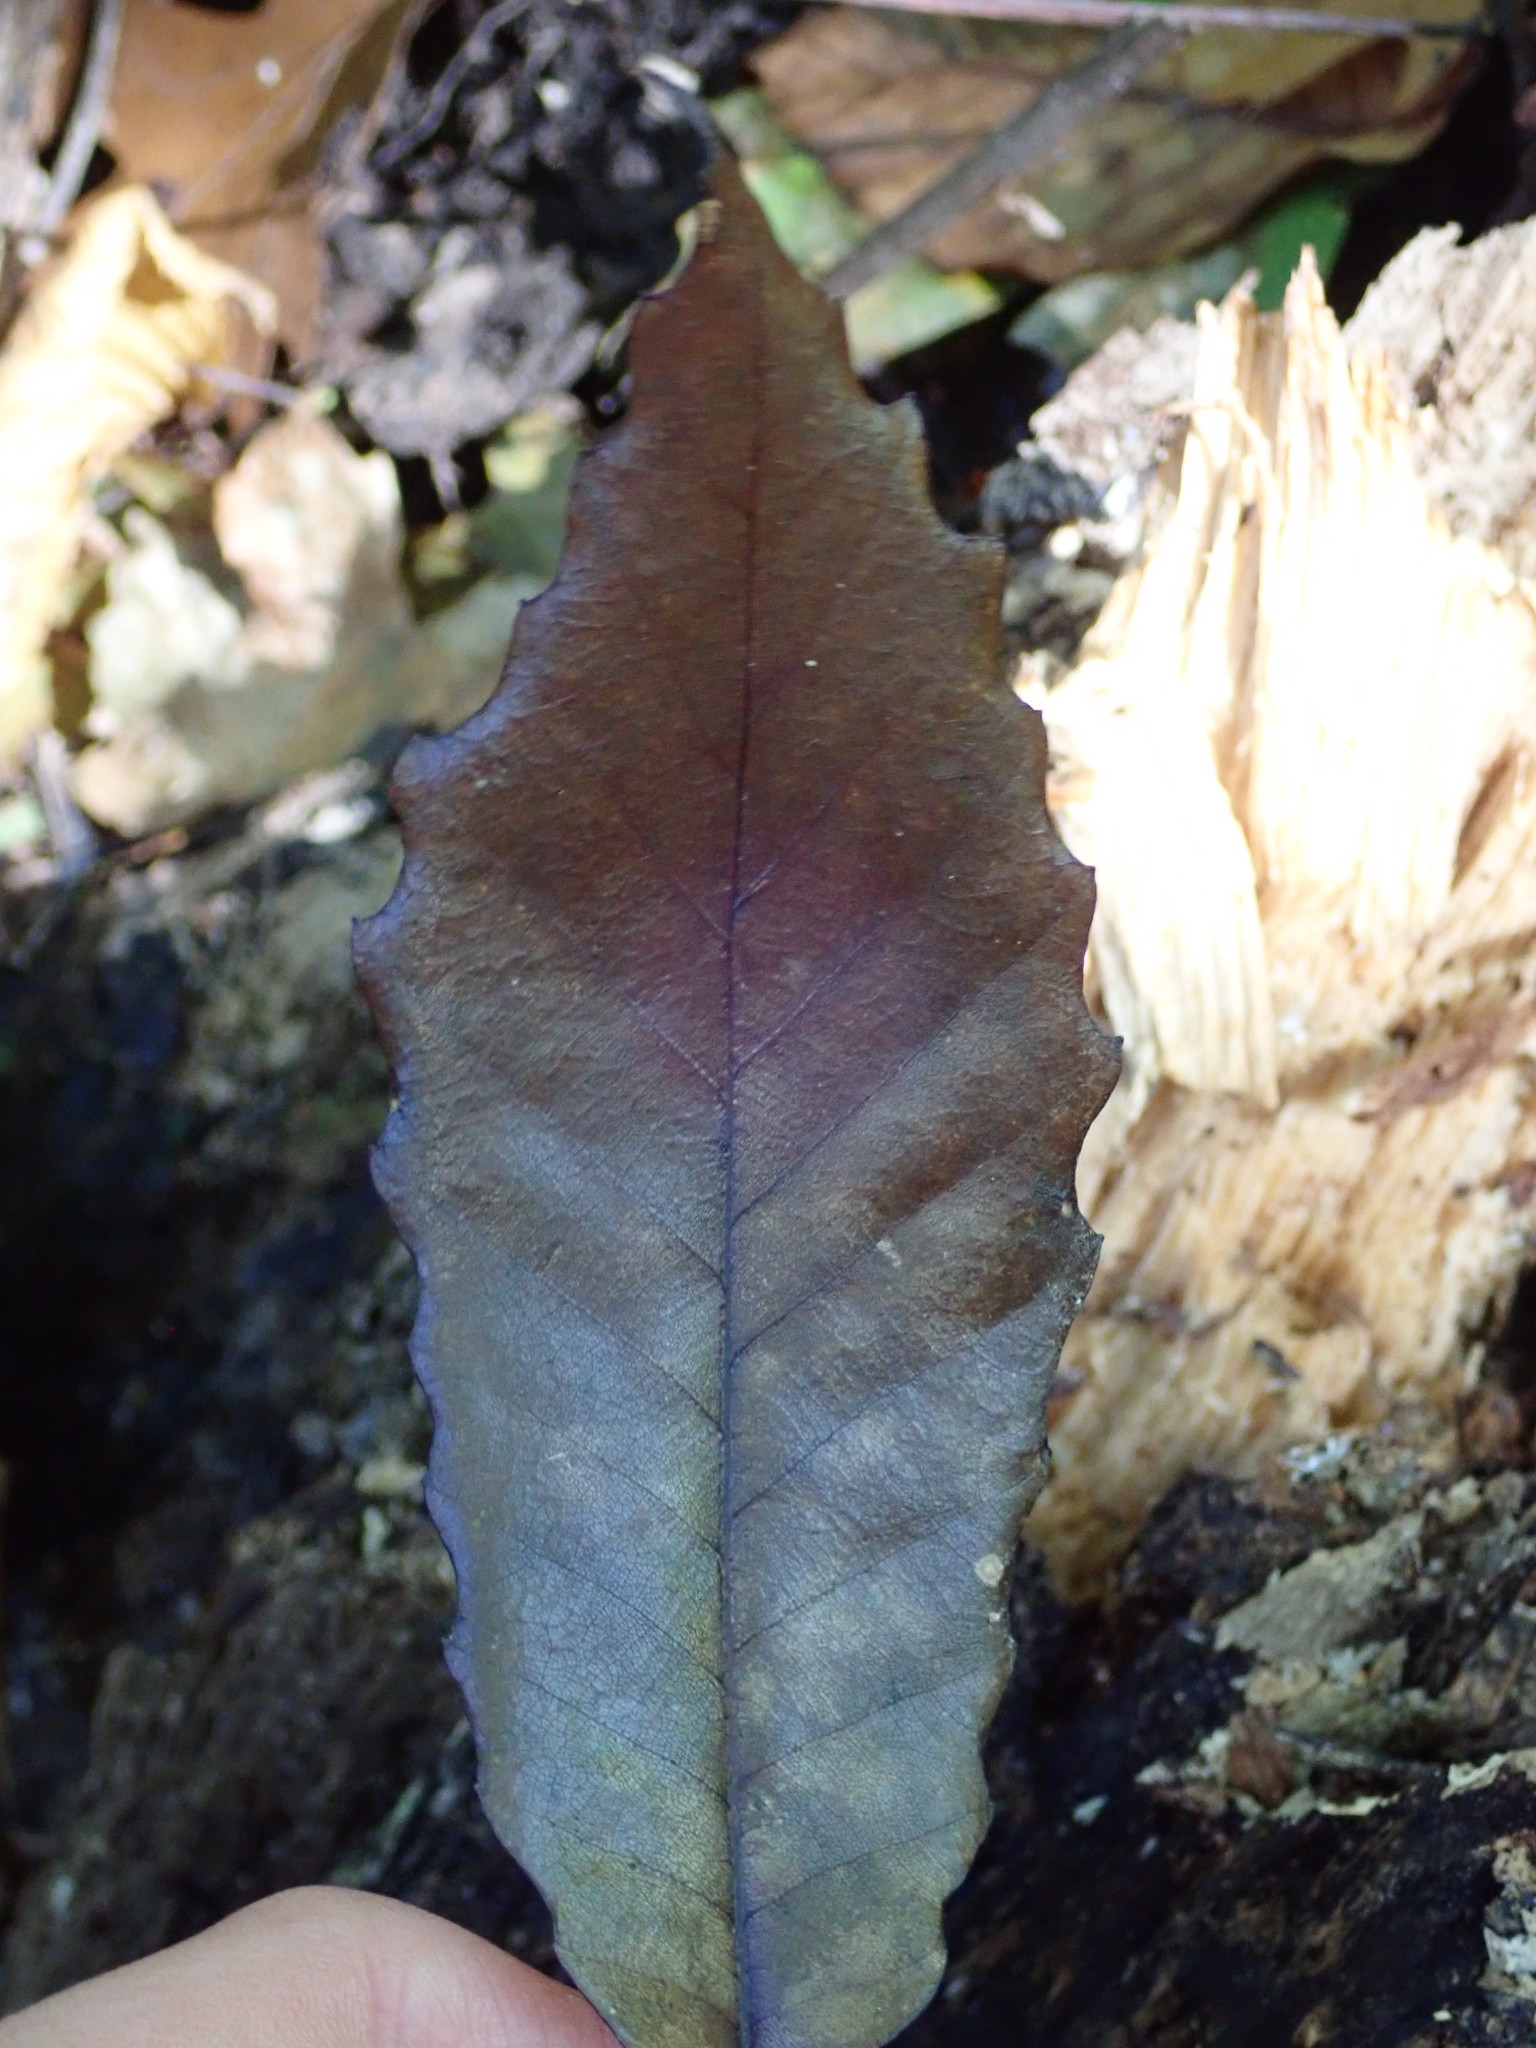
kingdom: Plantae
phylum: Tracheophyta
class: Magnoliopsida
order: Fagales
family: Fagaceae
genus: Quercus
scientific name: Quercus muehlenbergii
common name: Chinkapin oak
